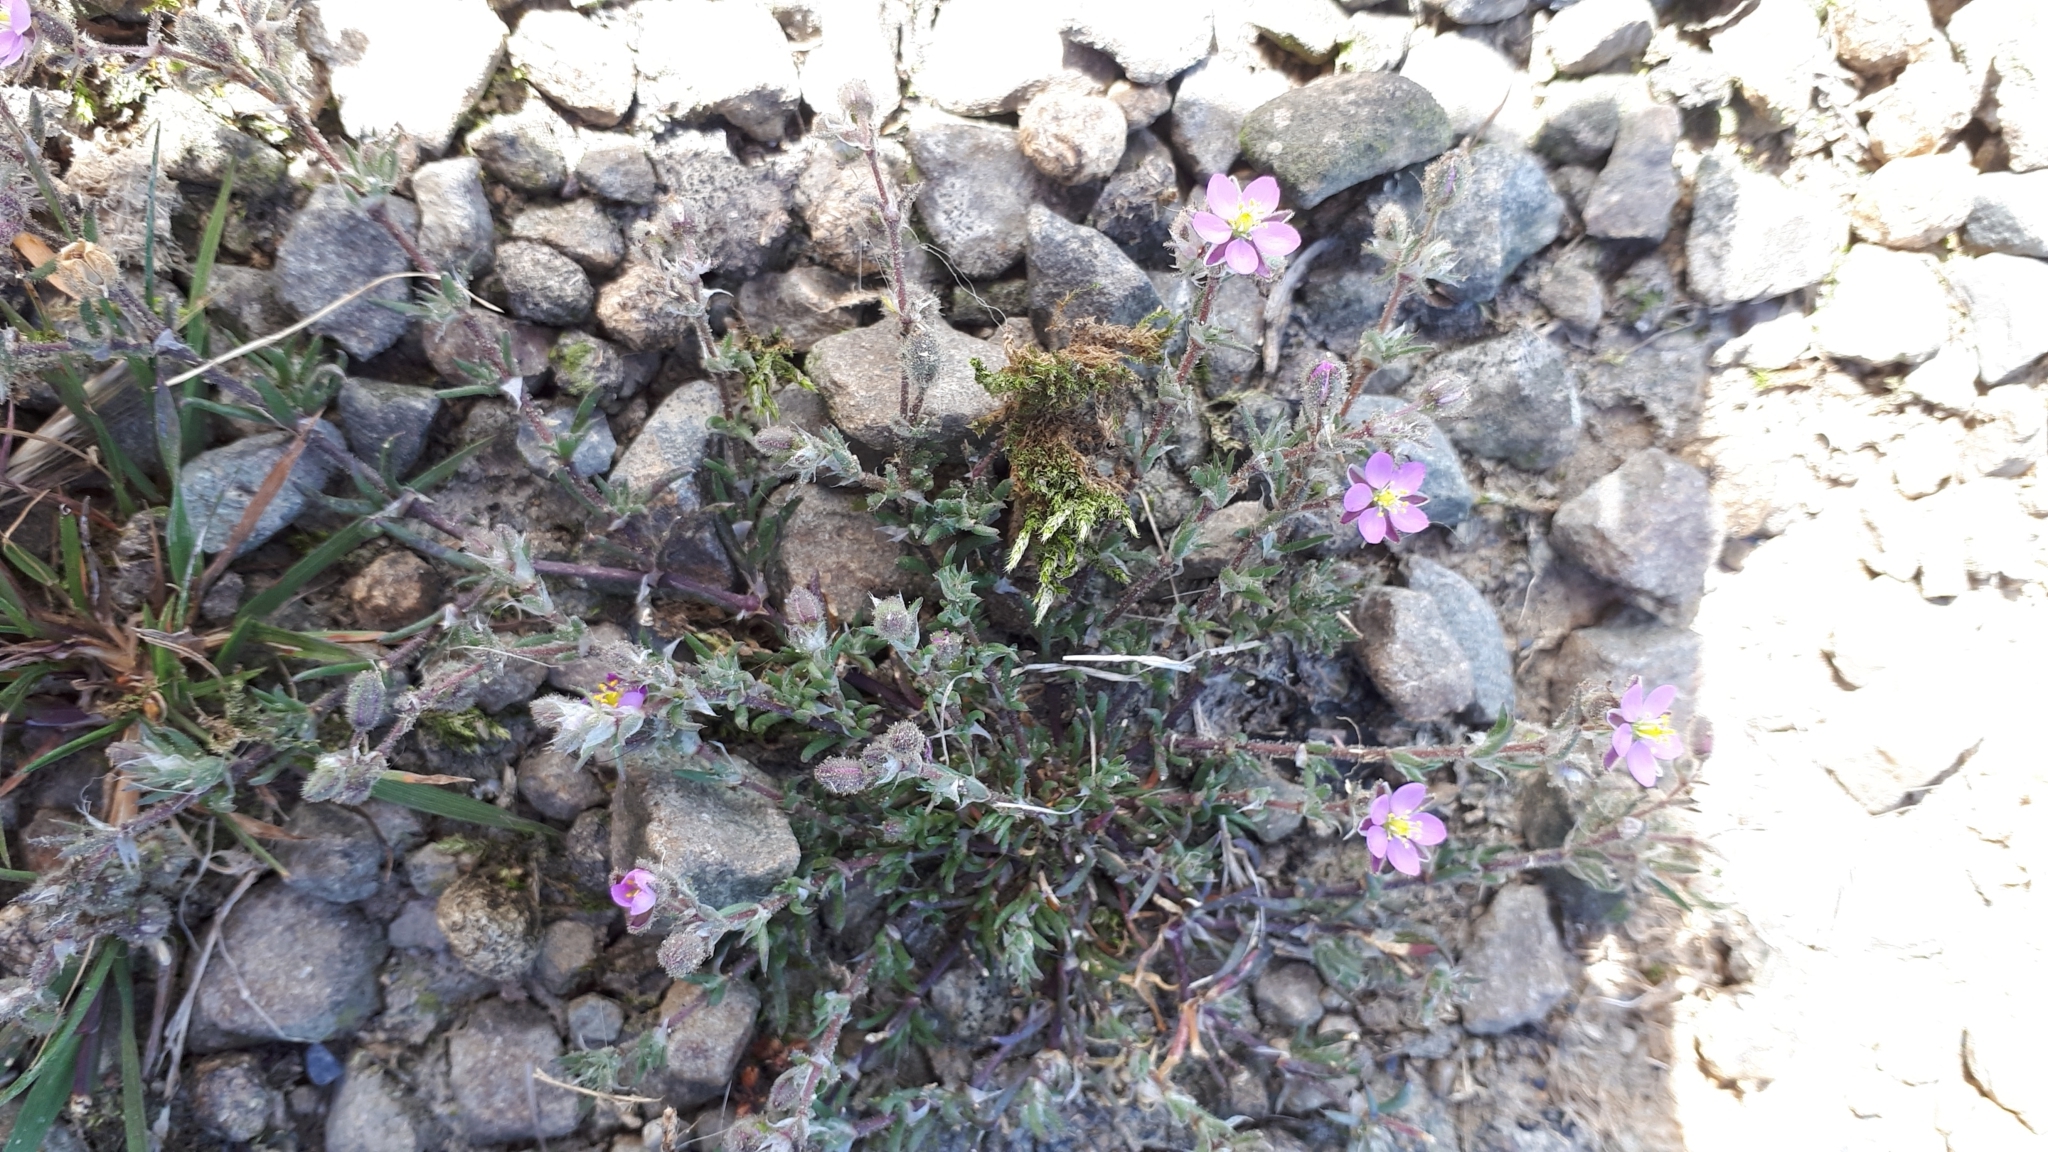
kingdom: Plantae
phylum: Tracheophyta
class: Magnoliopsida
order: Caryophyllales
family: Caryophyllaceae
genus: Spergularia
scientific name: Spergularia rubra
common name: Red sand-spurrey
